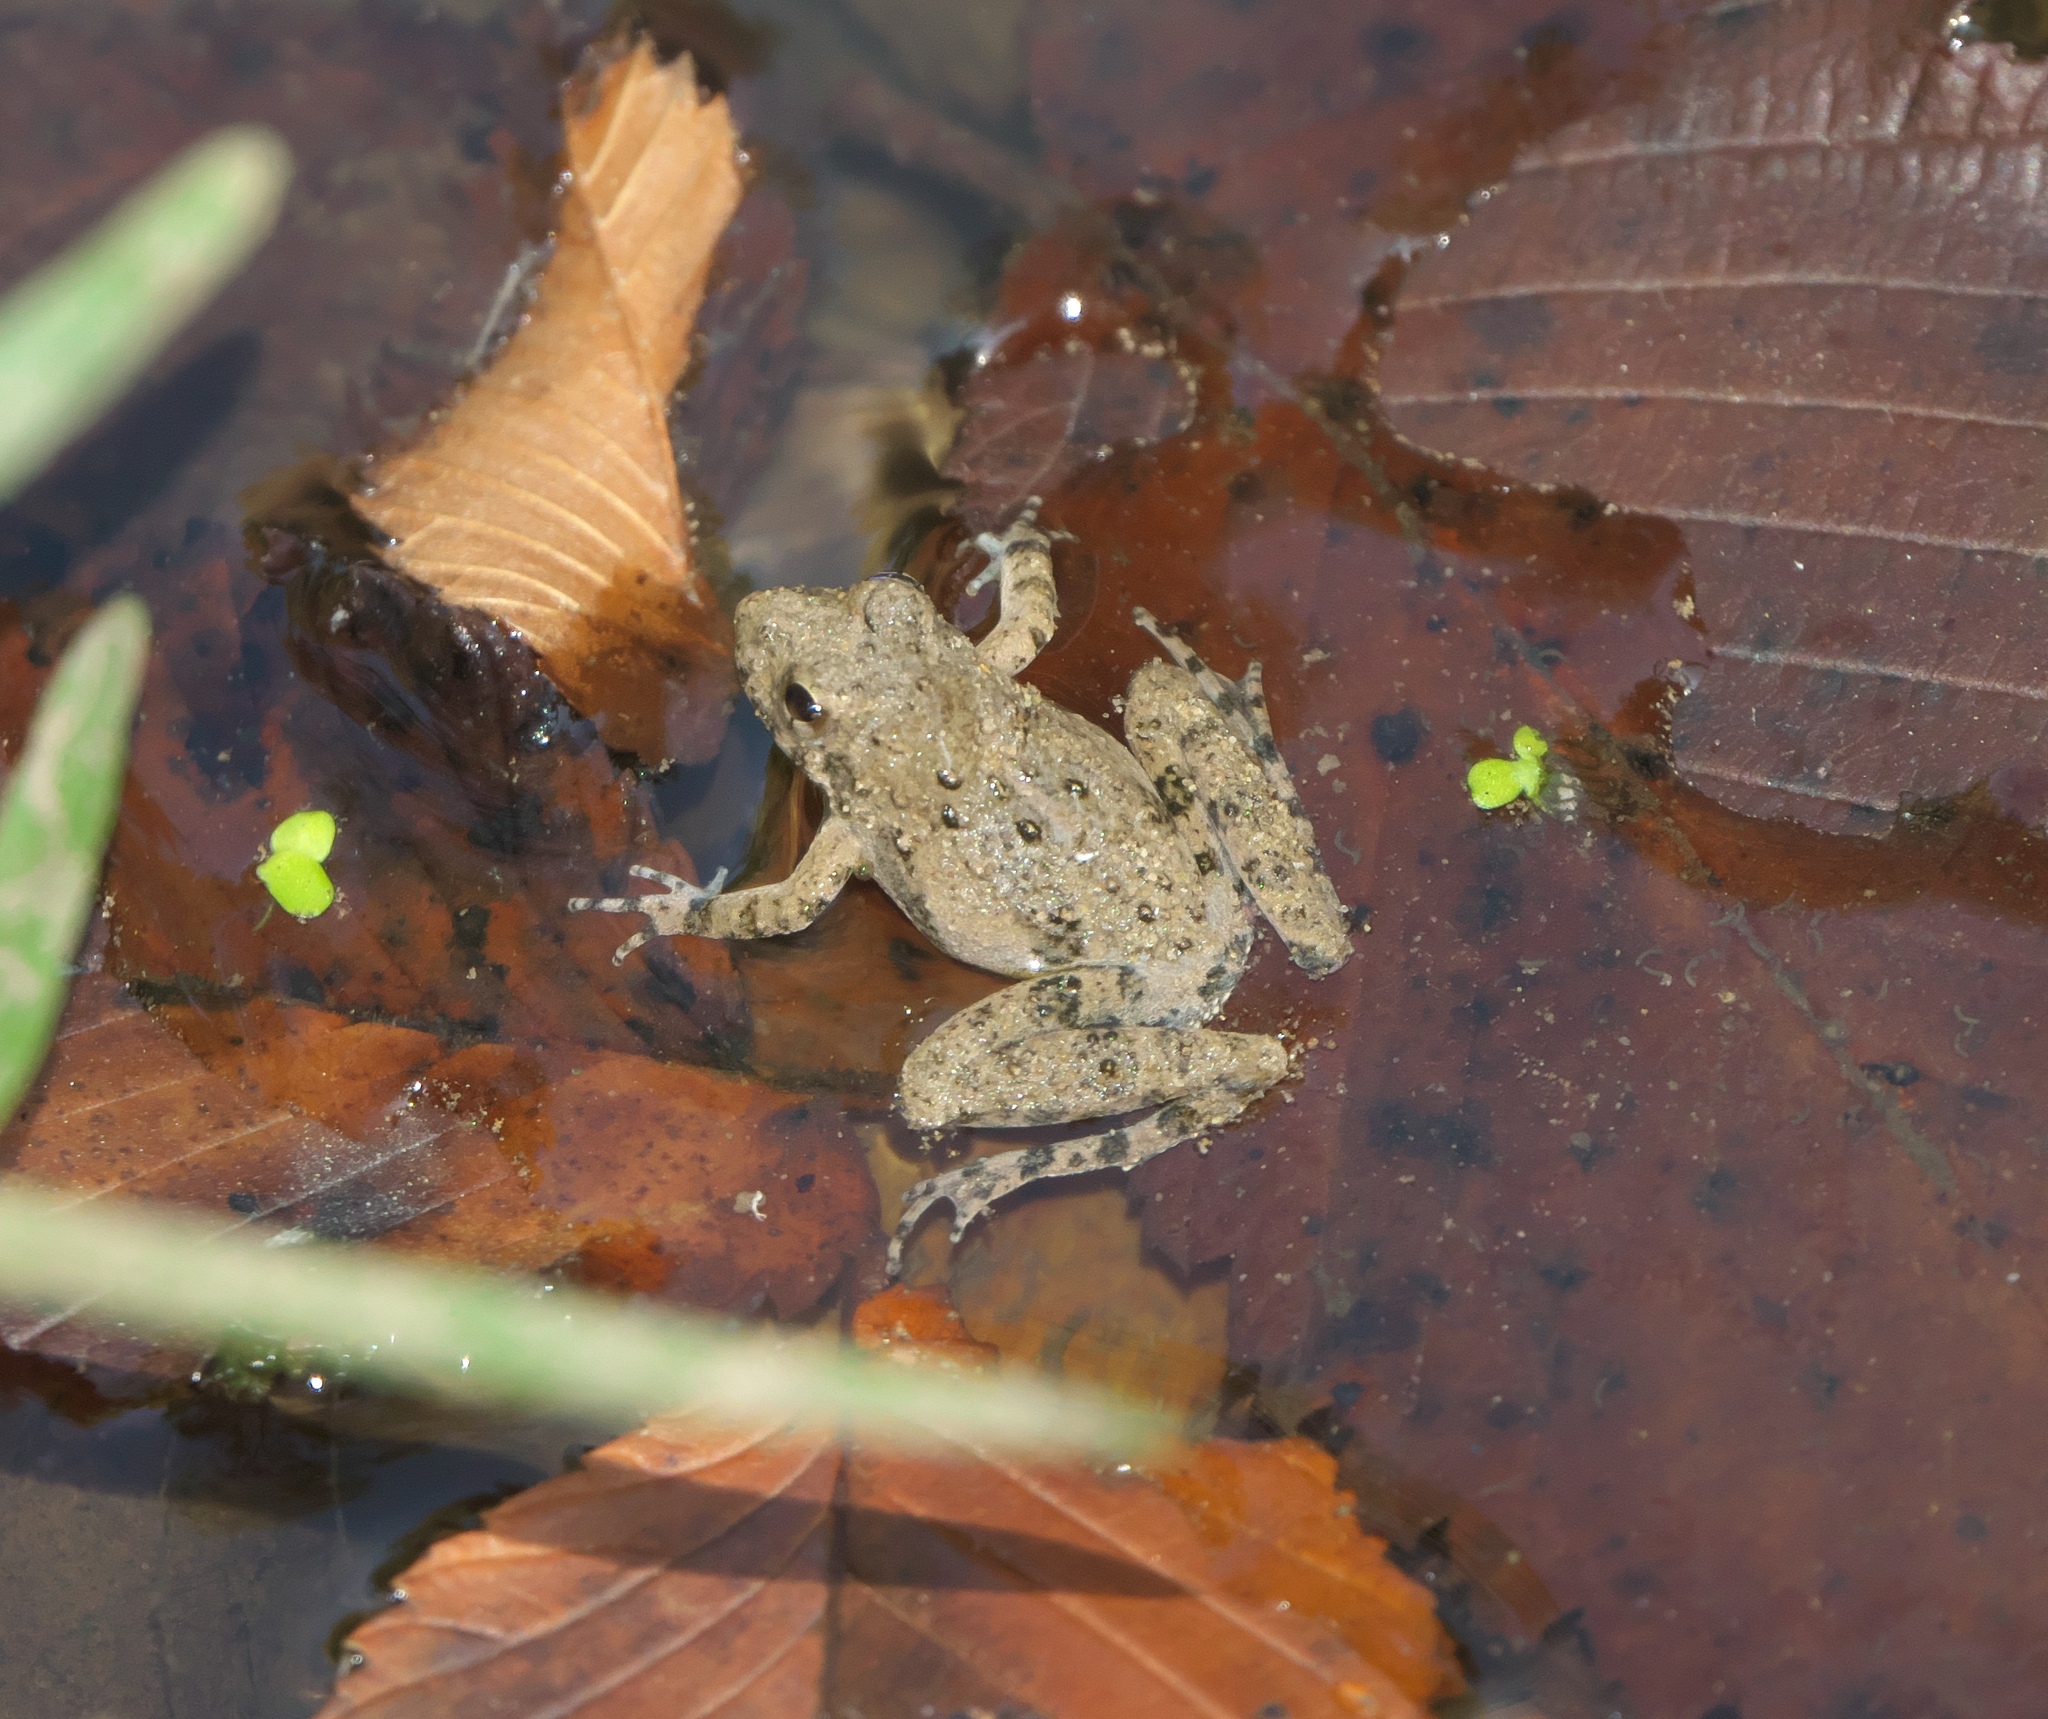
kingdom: Animalia
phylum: Chordata
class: Amphibia
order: Anura
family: Hylidae
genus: Acris
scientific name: Acris blanchardi
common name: Blanchard's cricket frog
